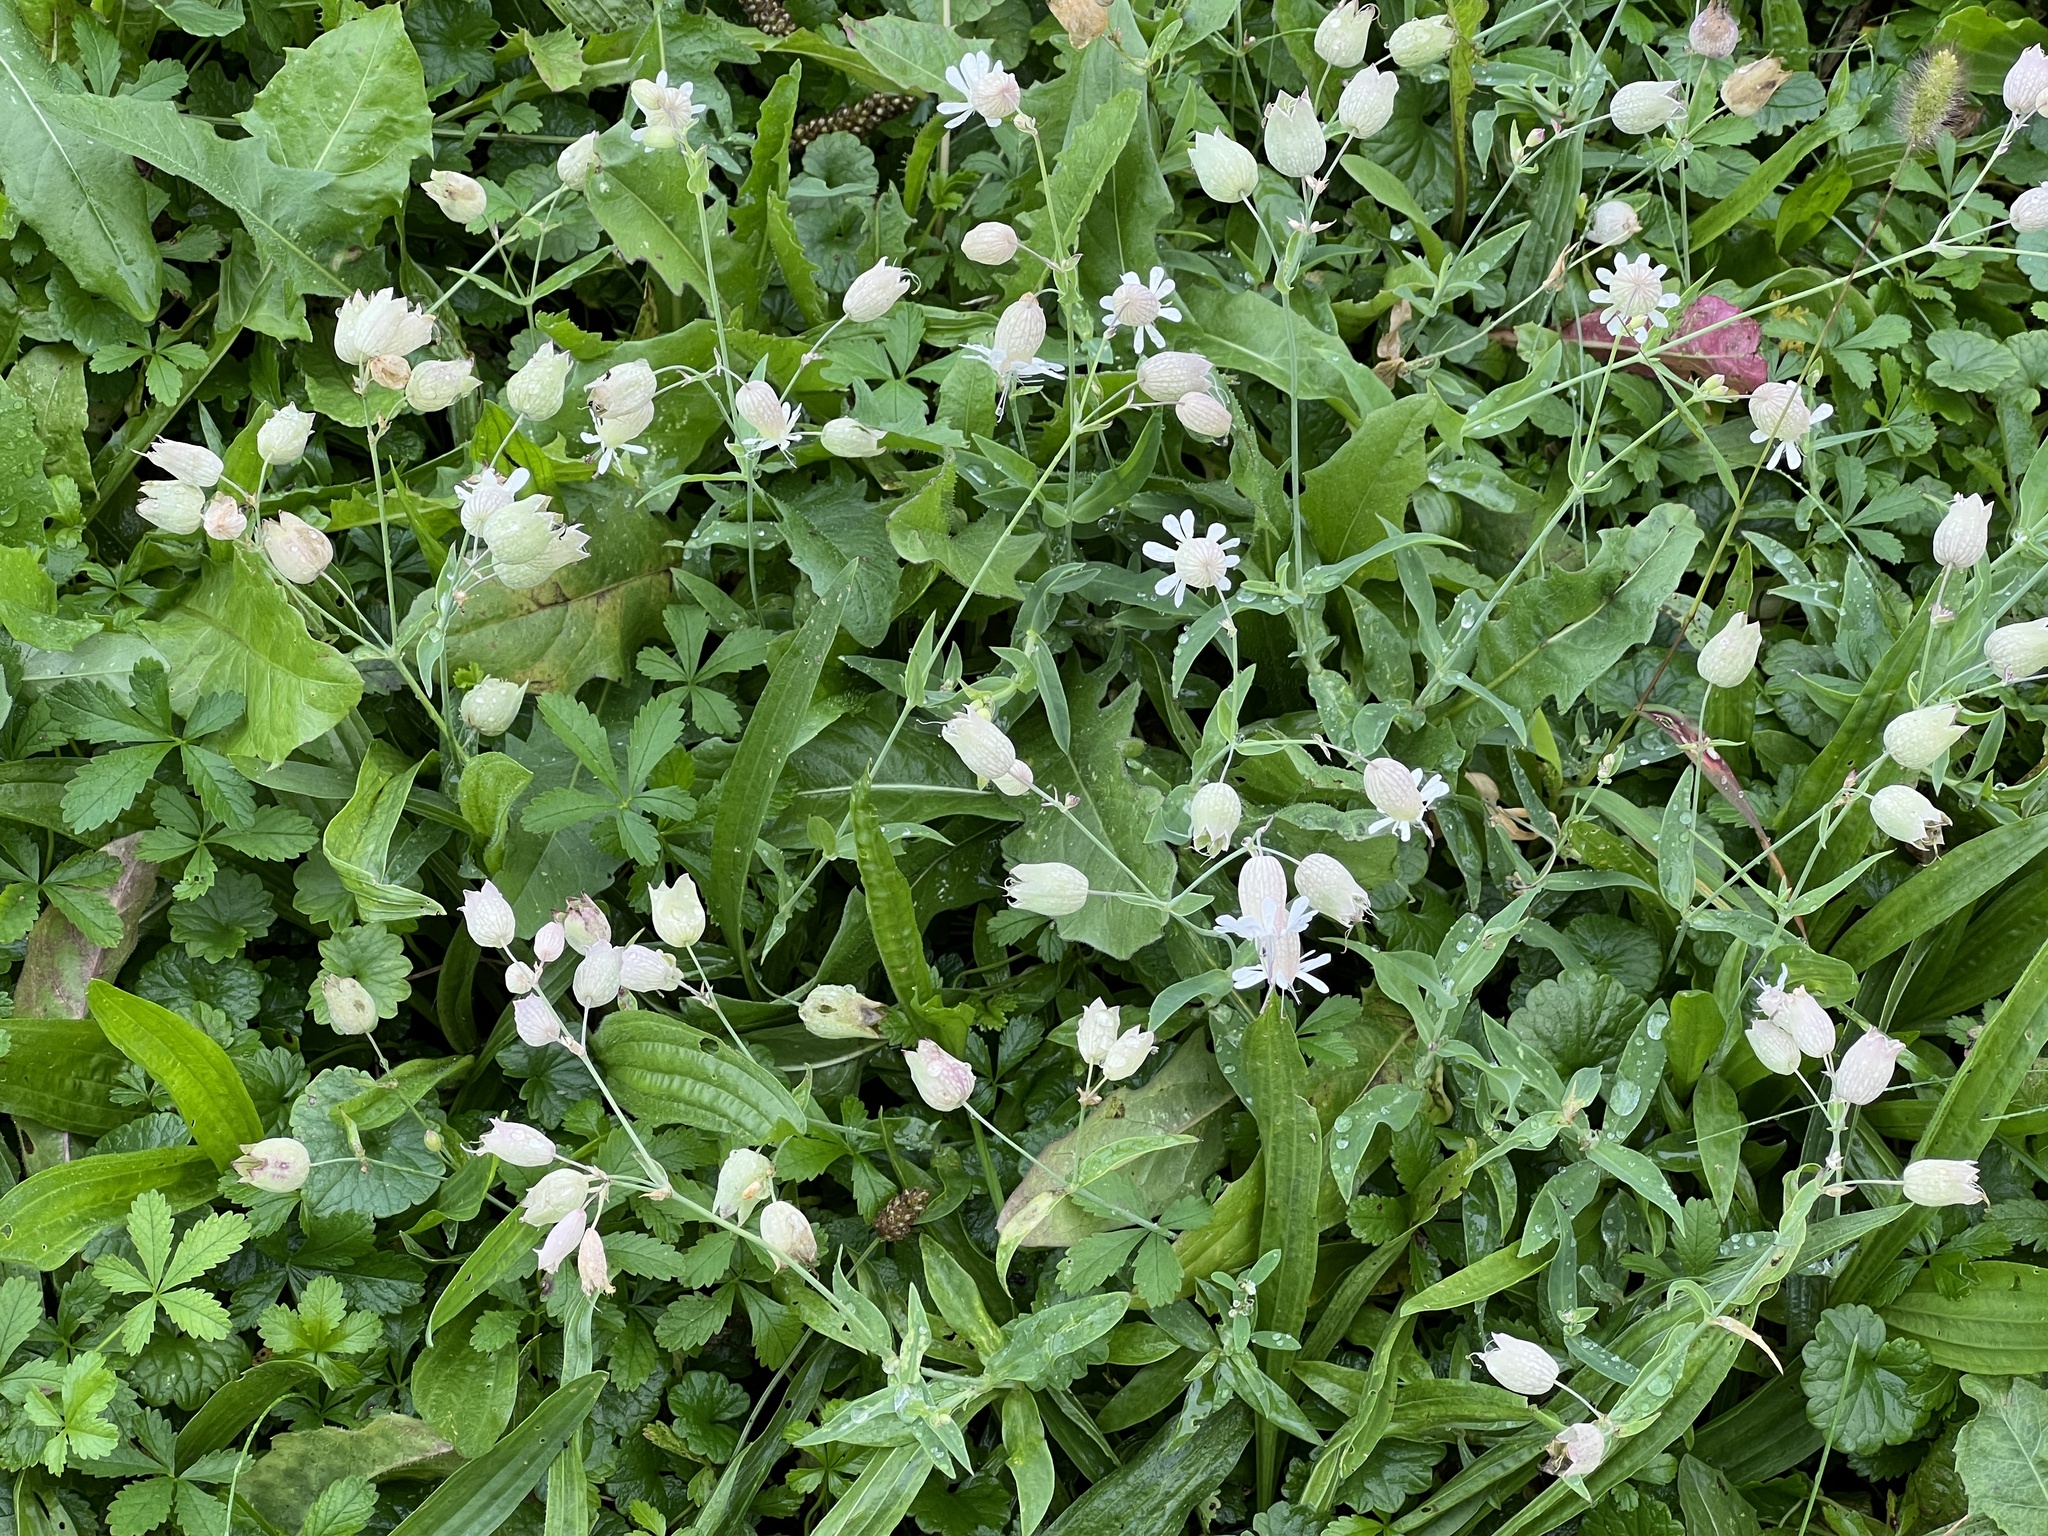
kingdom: Plantae
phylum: Tracheophyta
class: Magnoliopsida
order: Caryophyllales
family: Caryophyllaceae
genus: Silene
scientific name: Silene vulgaris
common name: Bladder campion
